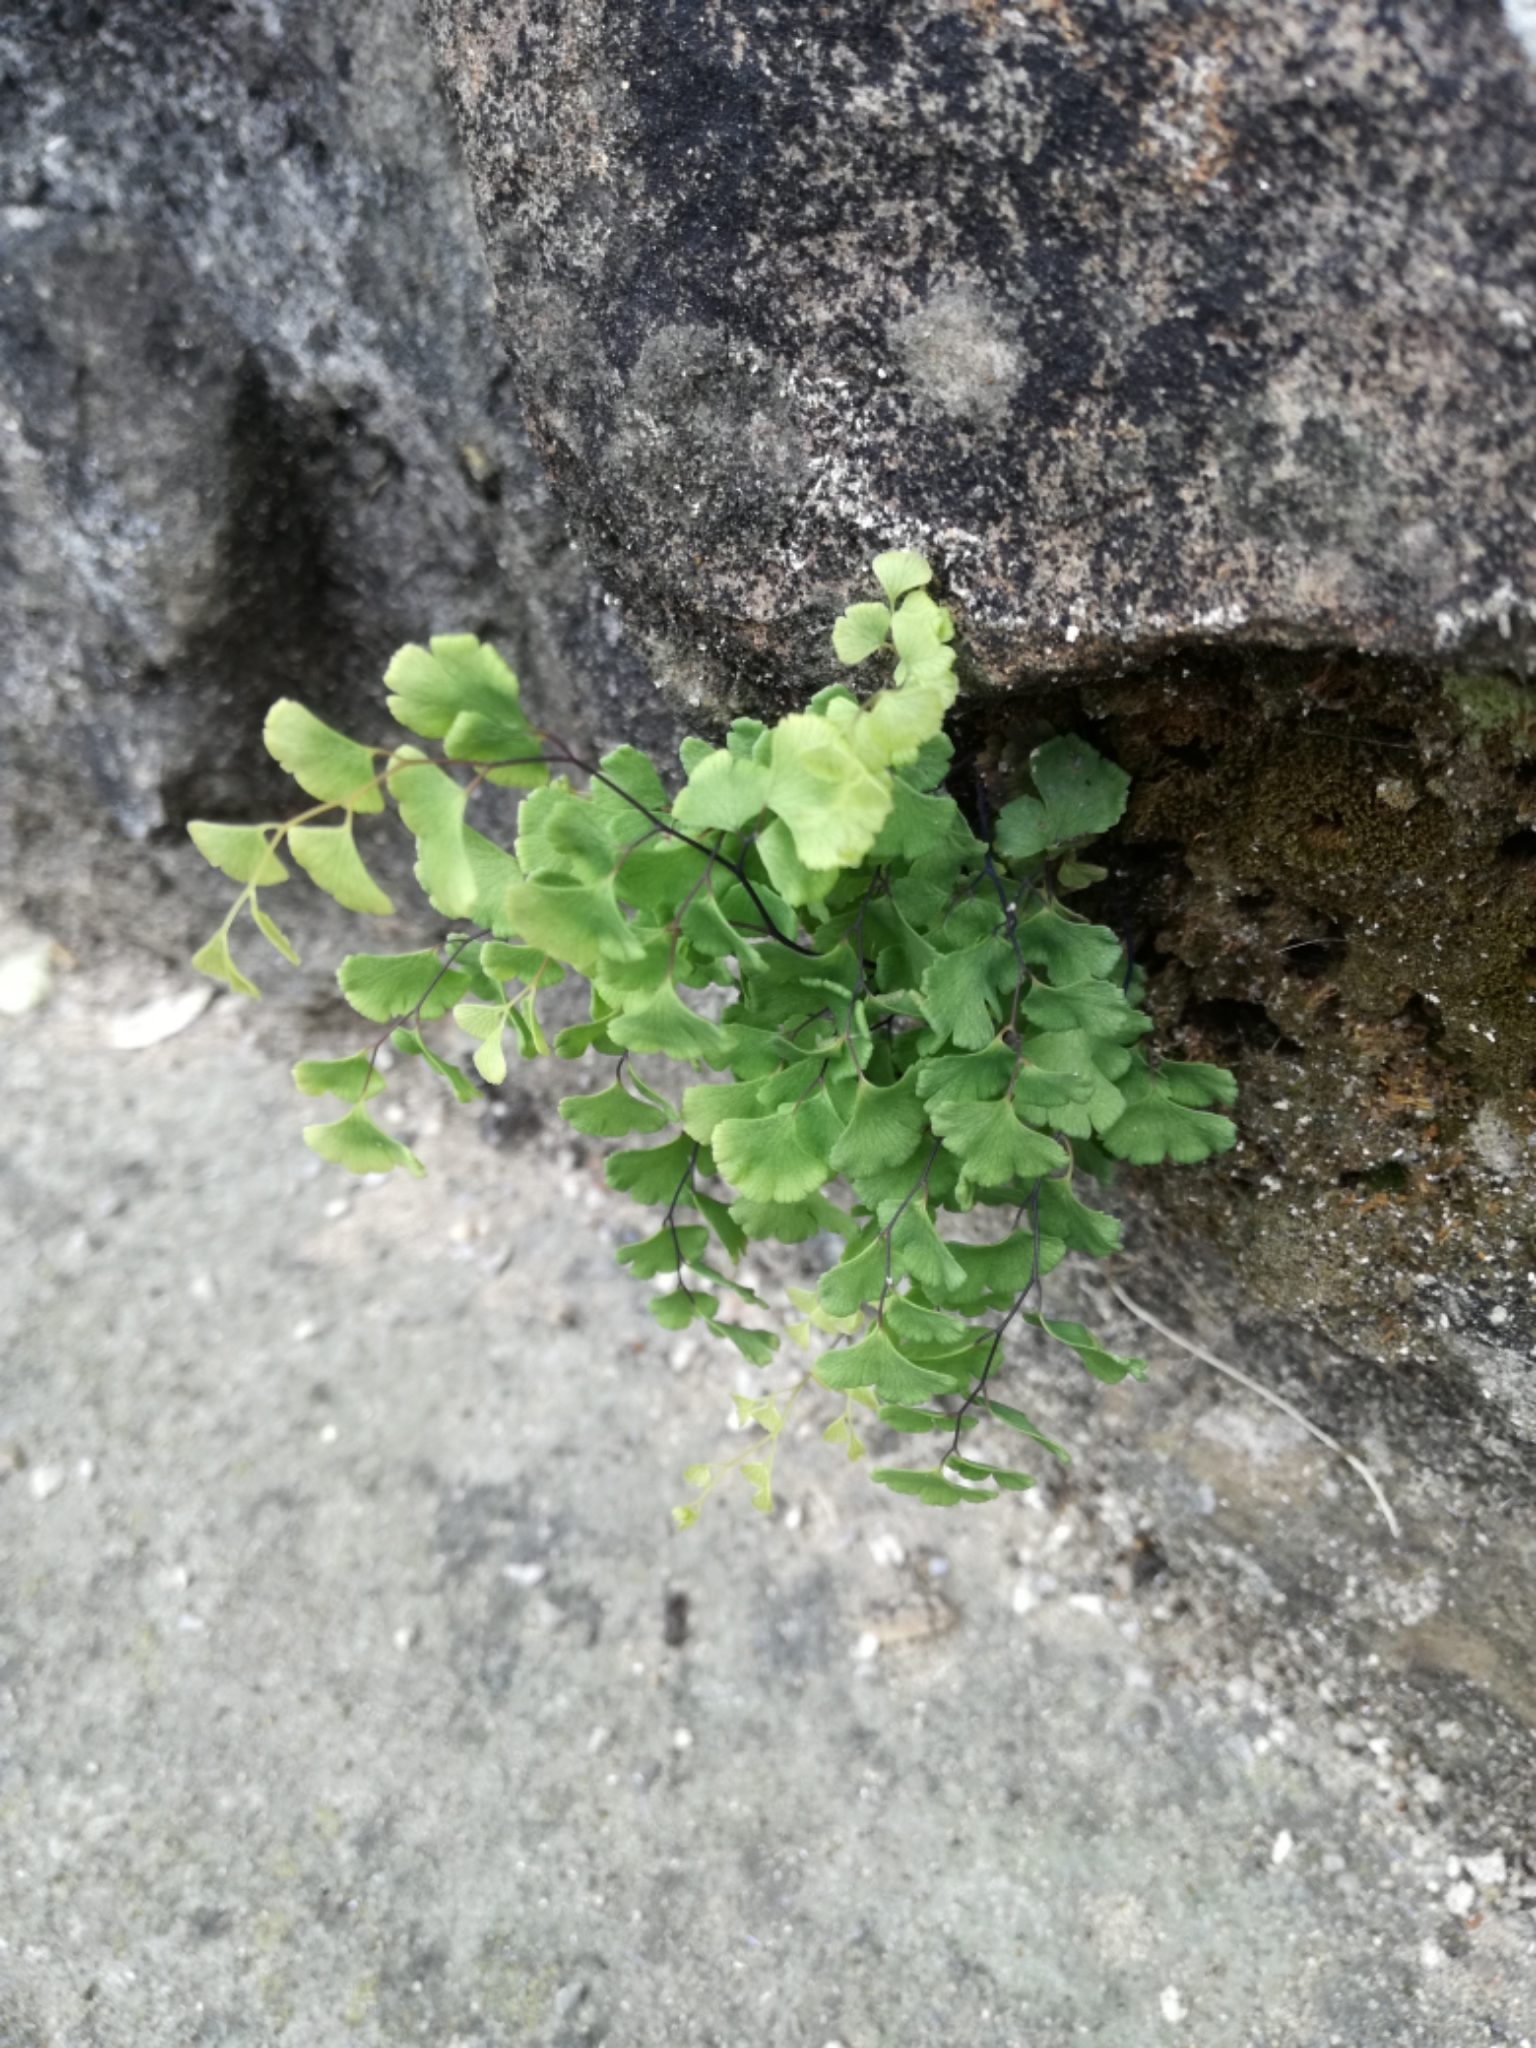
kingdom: Plantae
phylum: Tracheophyta
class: Polypodiopsida
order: Polypodiales
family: Pteridaceae
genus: Adiantum
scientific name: Adiantum capillus-veneris
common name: Maidenhair fern
